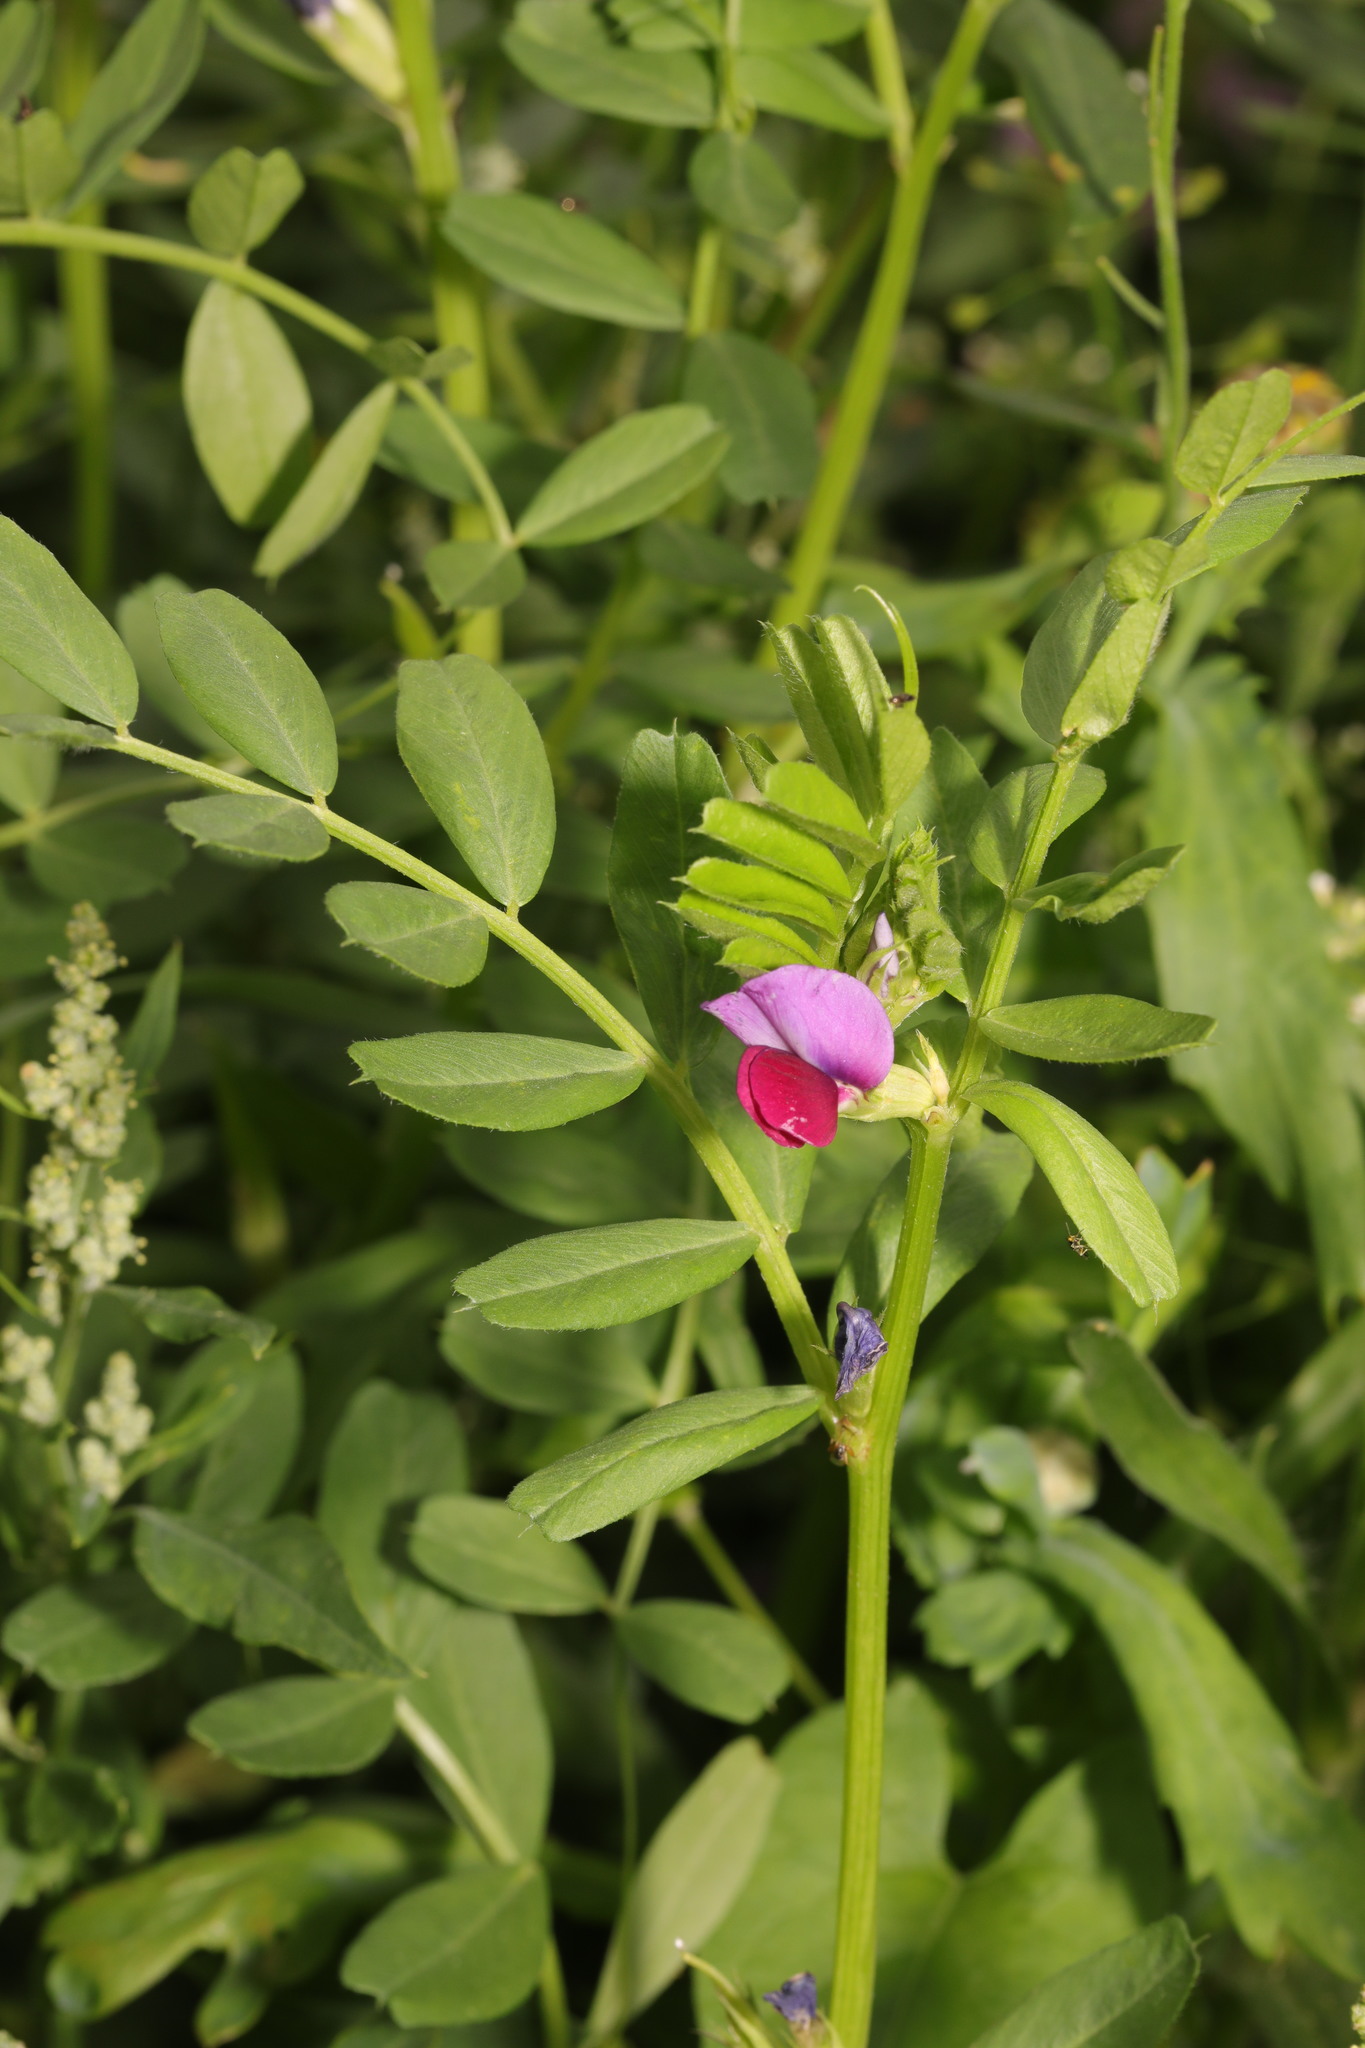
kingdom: Plantae
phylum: Tracheophyta
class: Magnoliopsida
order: Fabales
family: Fabaceae
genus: Vicia
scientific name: Vicia sativa
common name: Garden vetch
